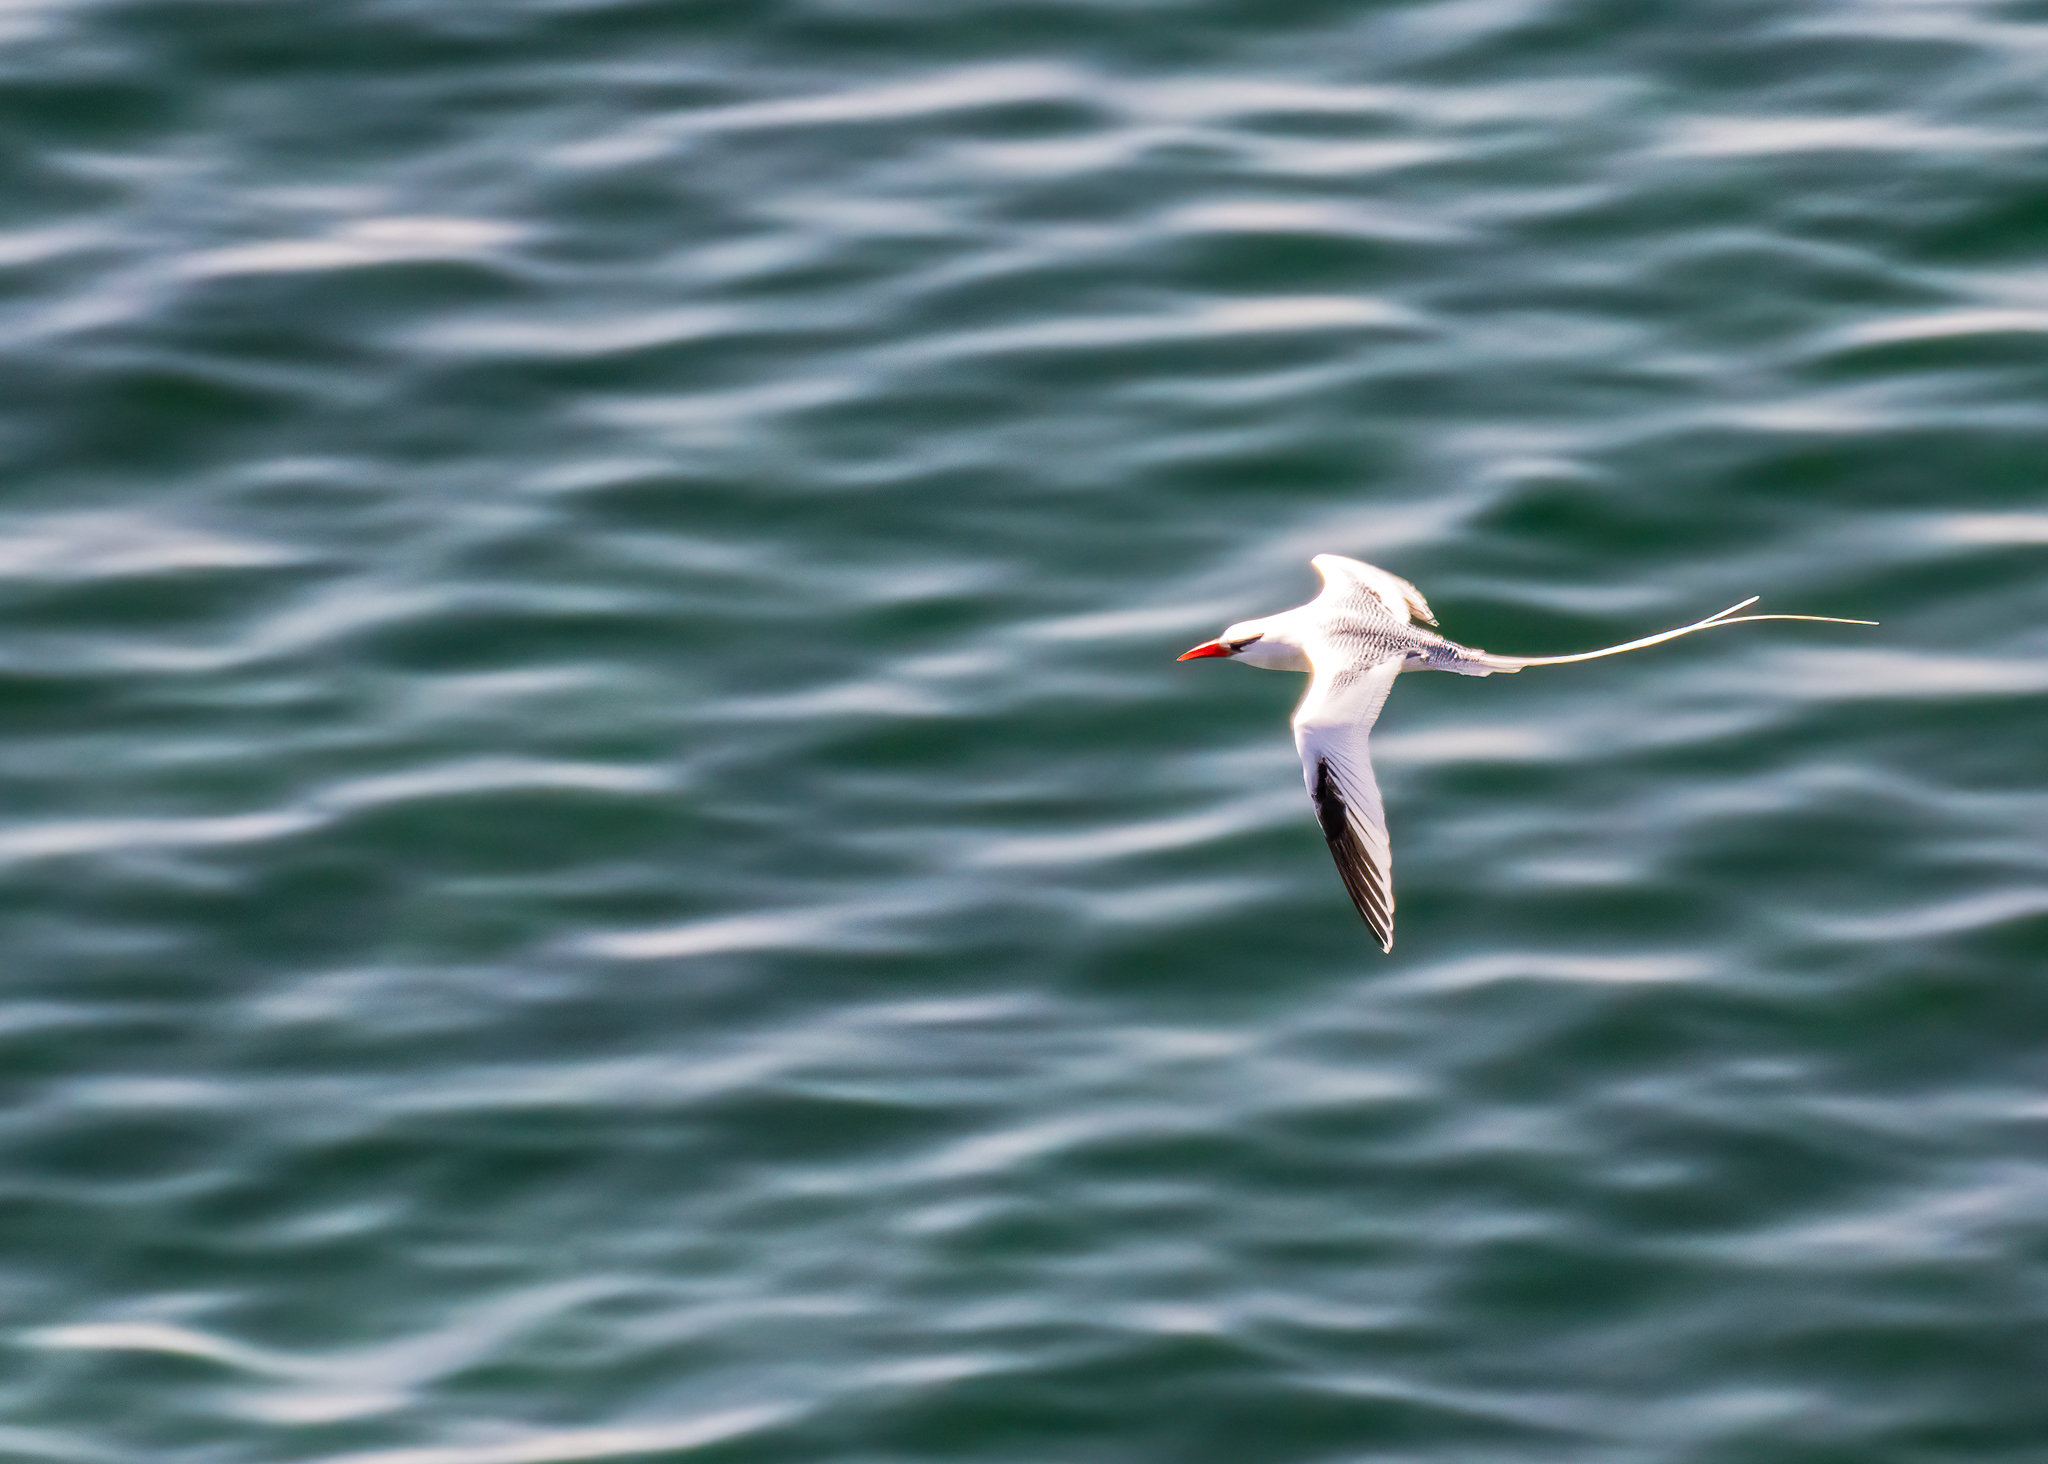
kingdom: Animalia
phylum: Chordata
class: Aves
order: Phaethontiformes
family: Phaethontidae
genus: Phaethon
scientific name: Phaethon aethereus
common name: Red-billed tropicbird
